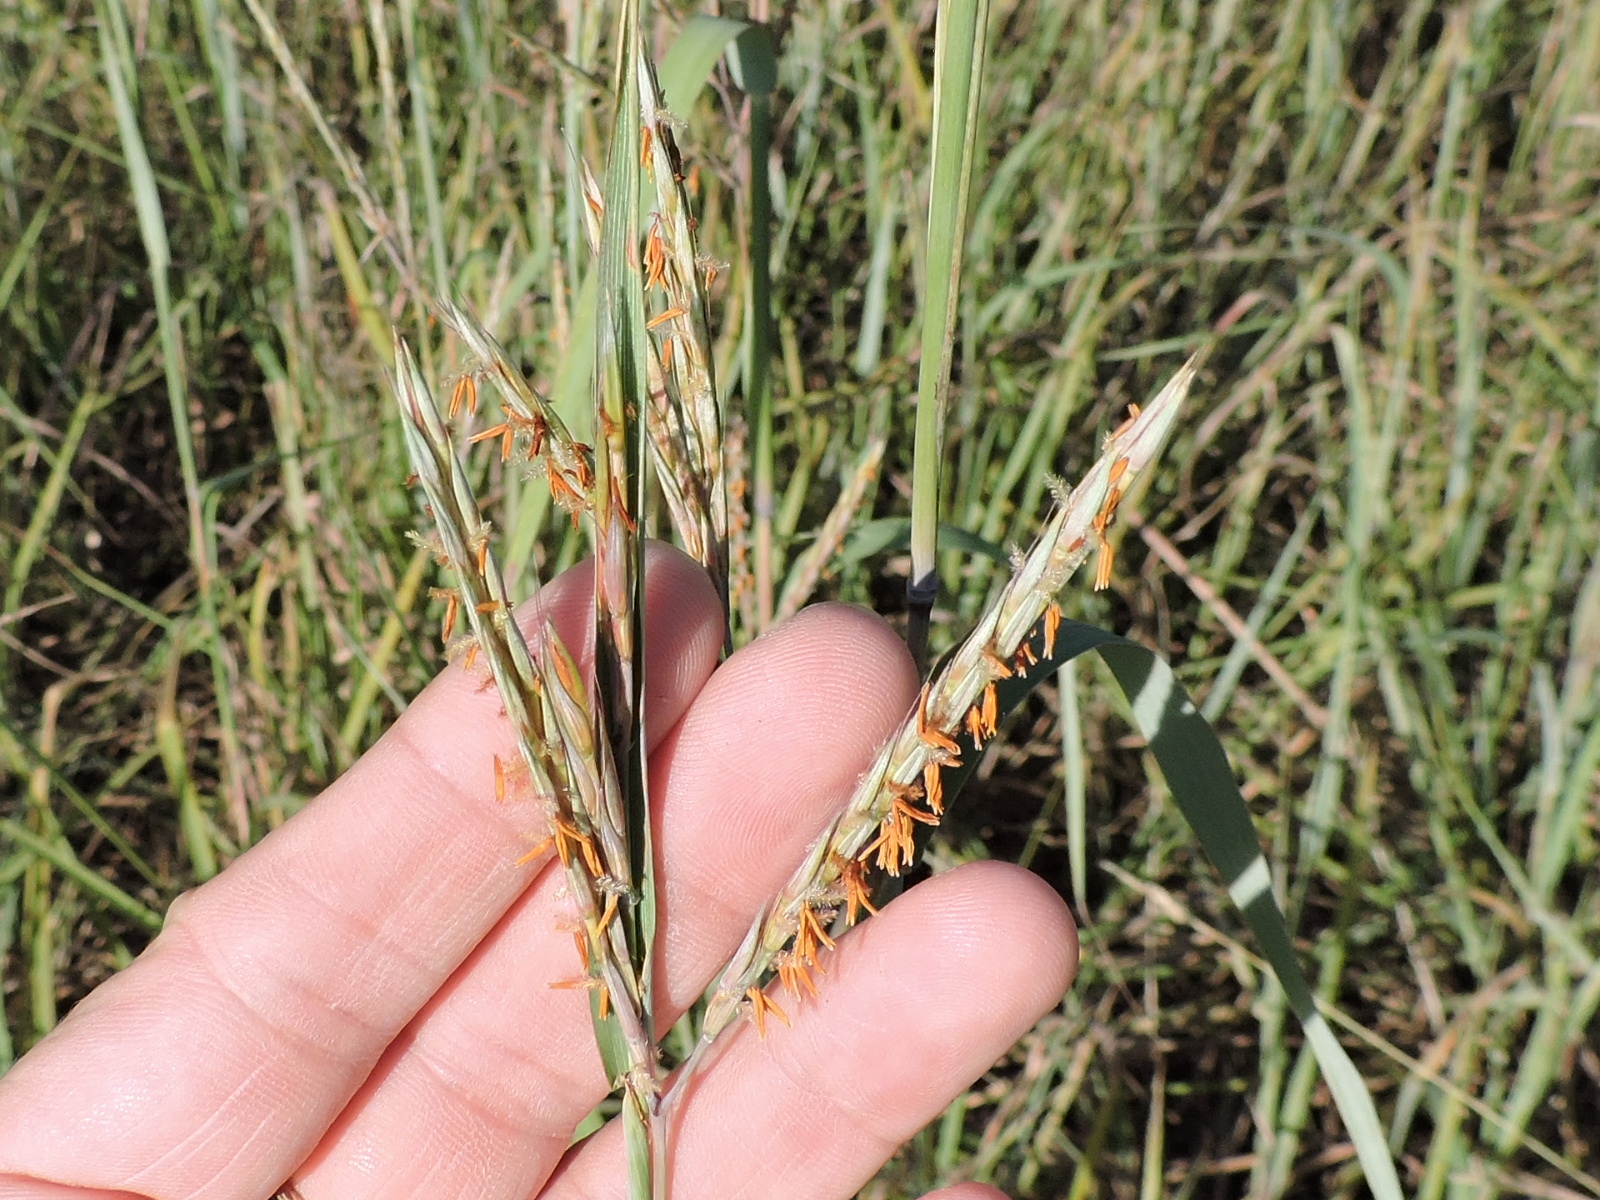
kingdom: Plantae
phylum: Tracheophyta
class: Liliopsida
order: Poales
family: Poaceae
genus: Andropogon
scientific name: Andropogon gerardi
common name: Big bluestem
